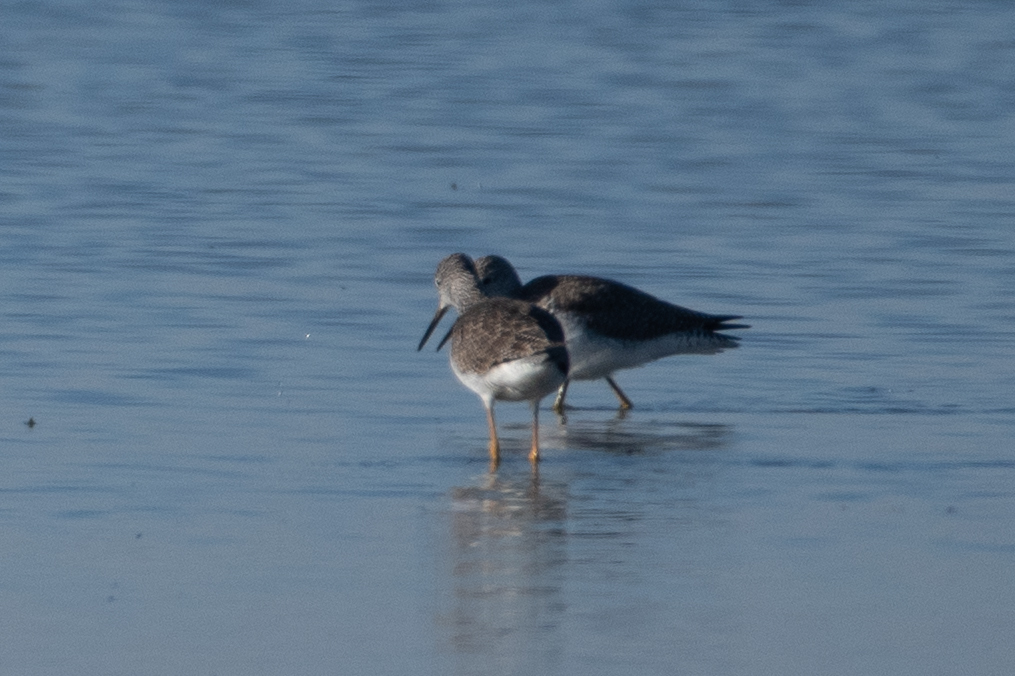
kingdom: Animalia
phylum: Chordata
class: Aves
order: Charadriiformes
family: Scolopacidae
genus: Tringa
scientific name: Tringa melanoleuca
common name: Greater yellowlegs
